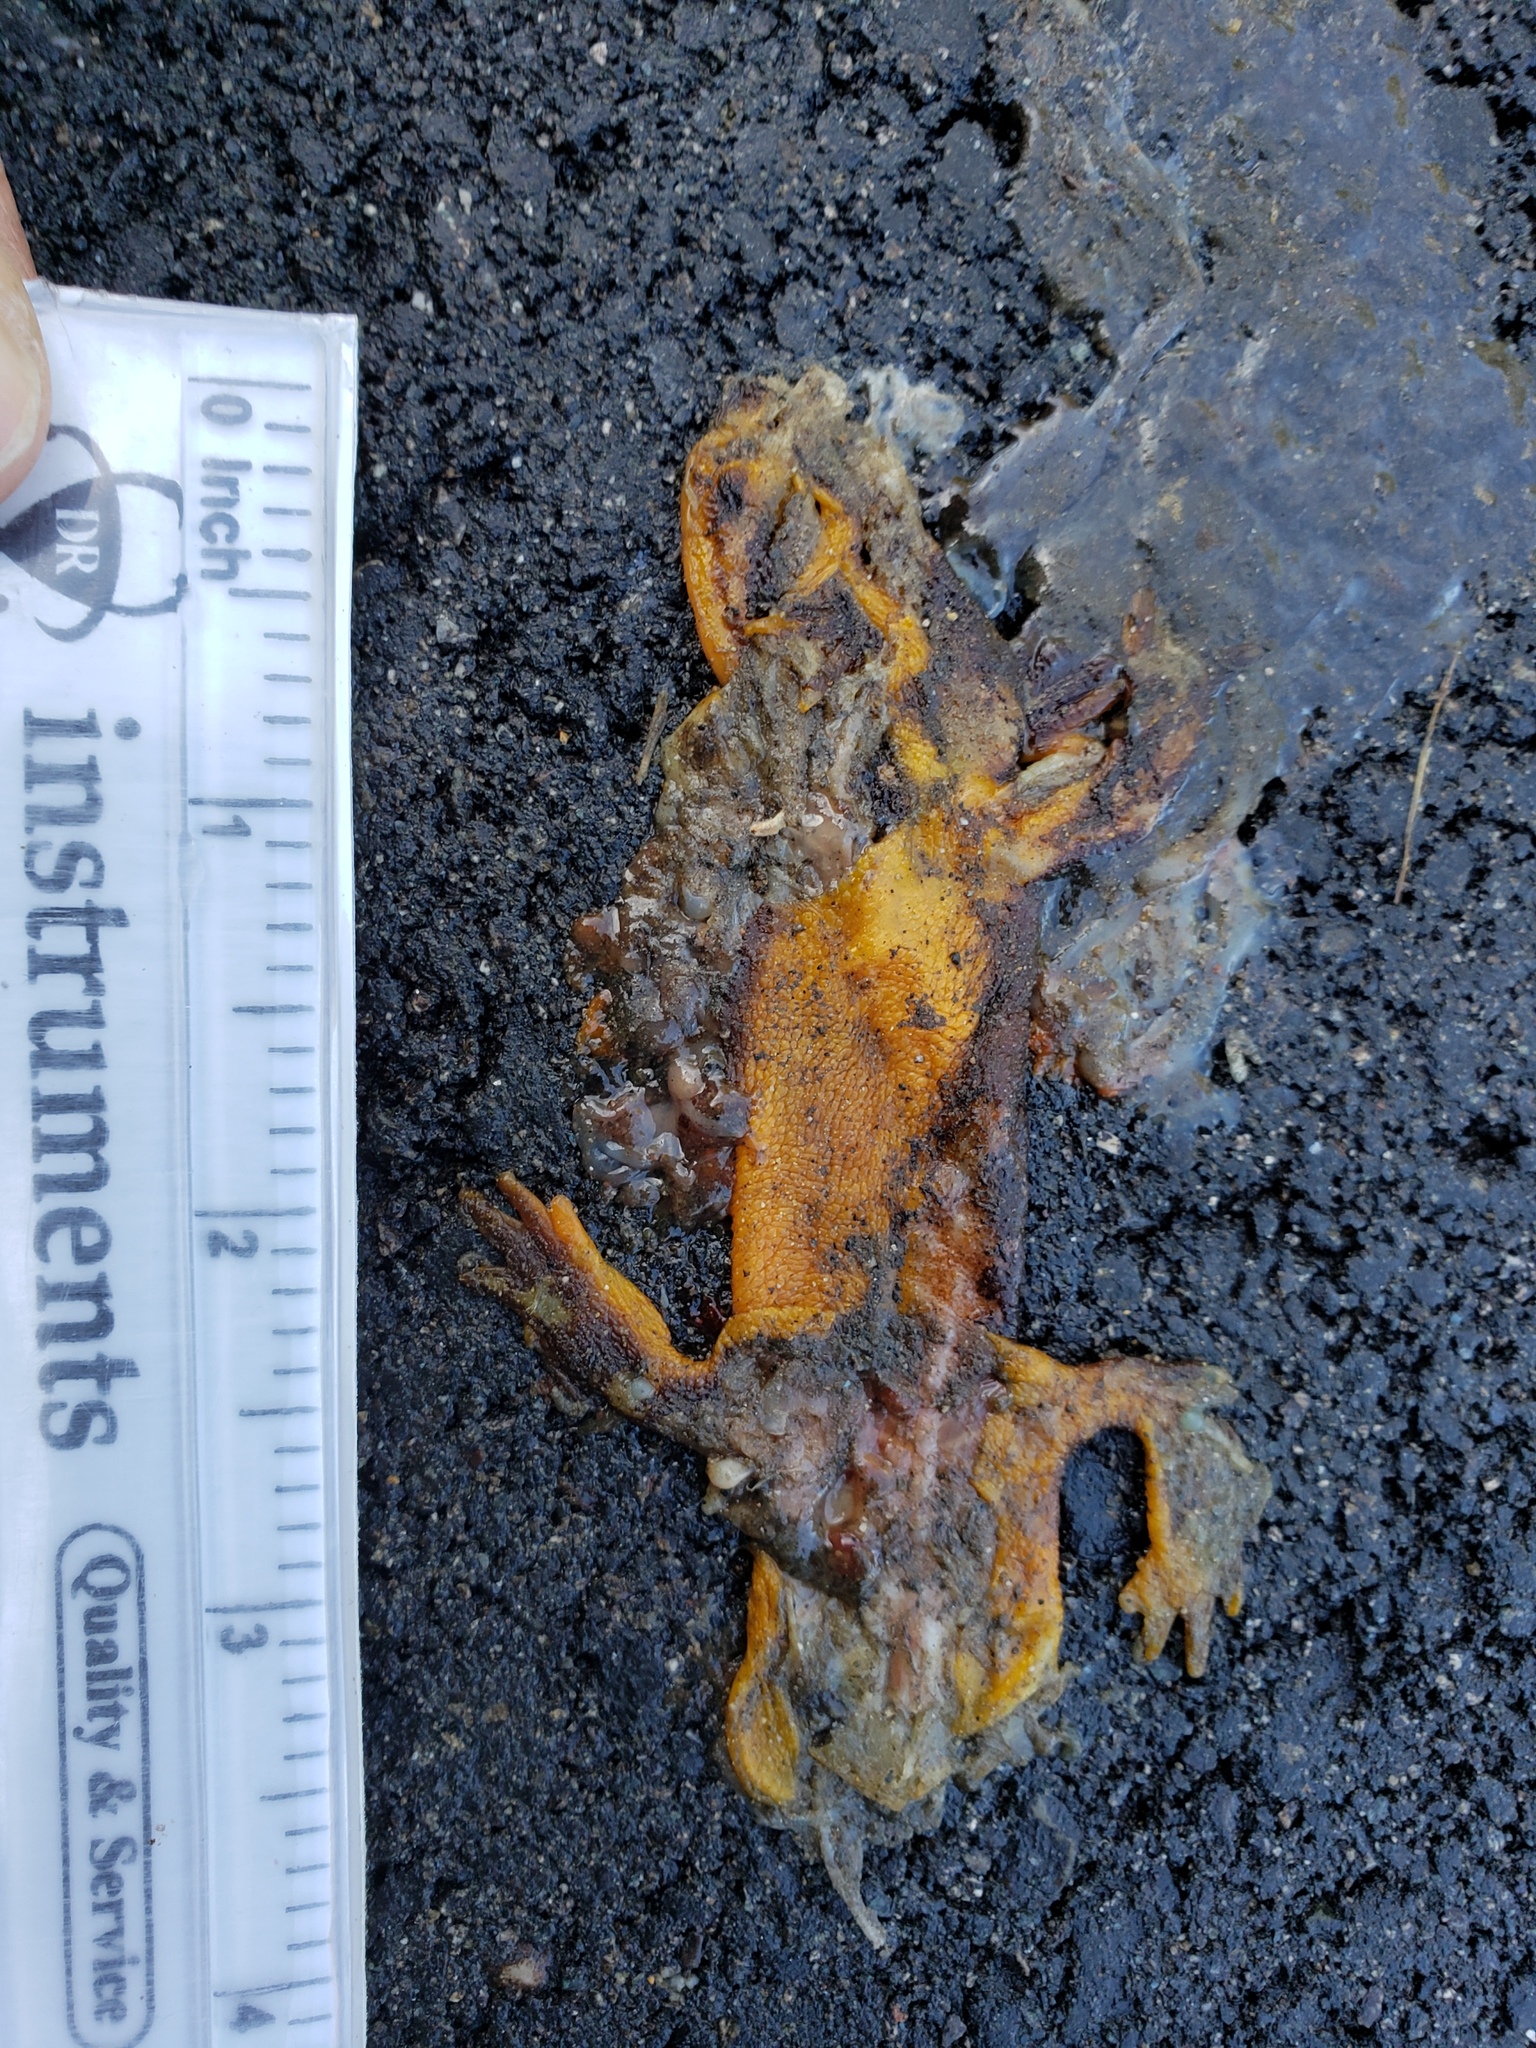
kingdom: Animalia
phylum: Chordata
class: Amphibia
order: Caudata
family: Salamandridae
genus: Taricha
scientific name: Taricha
